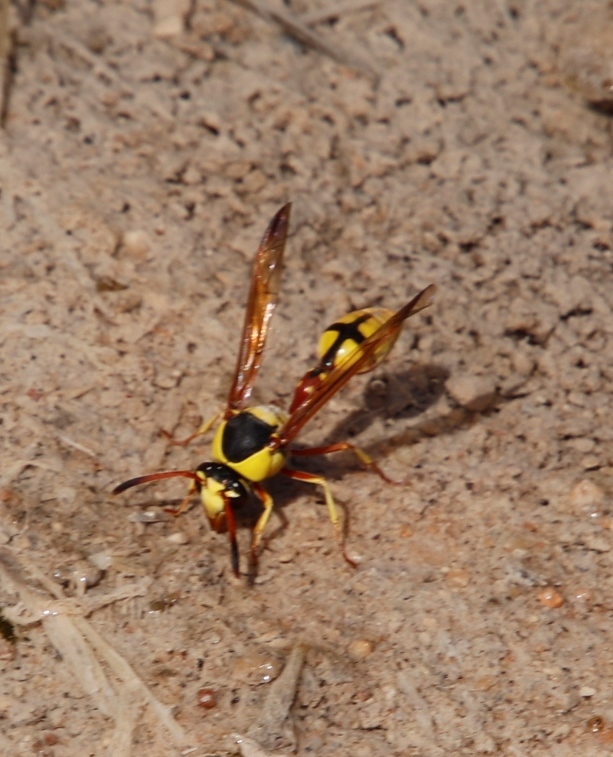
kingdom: Animalia
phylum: Arthropoda
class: Insecta
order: Hymenoptera
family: Eumenidae
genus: Delta
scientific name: Delta lepeleterii
